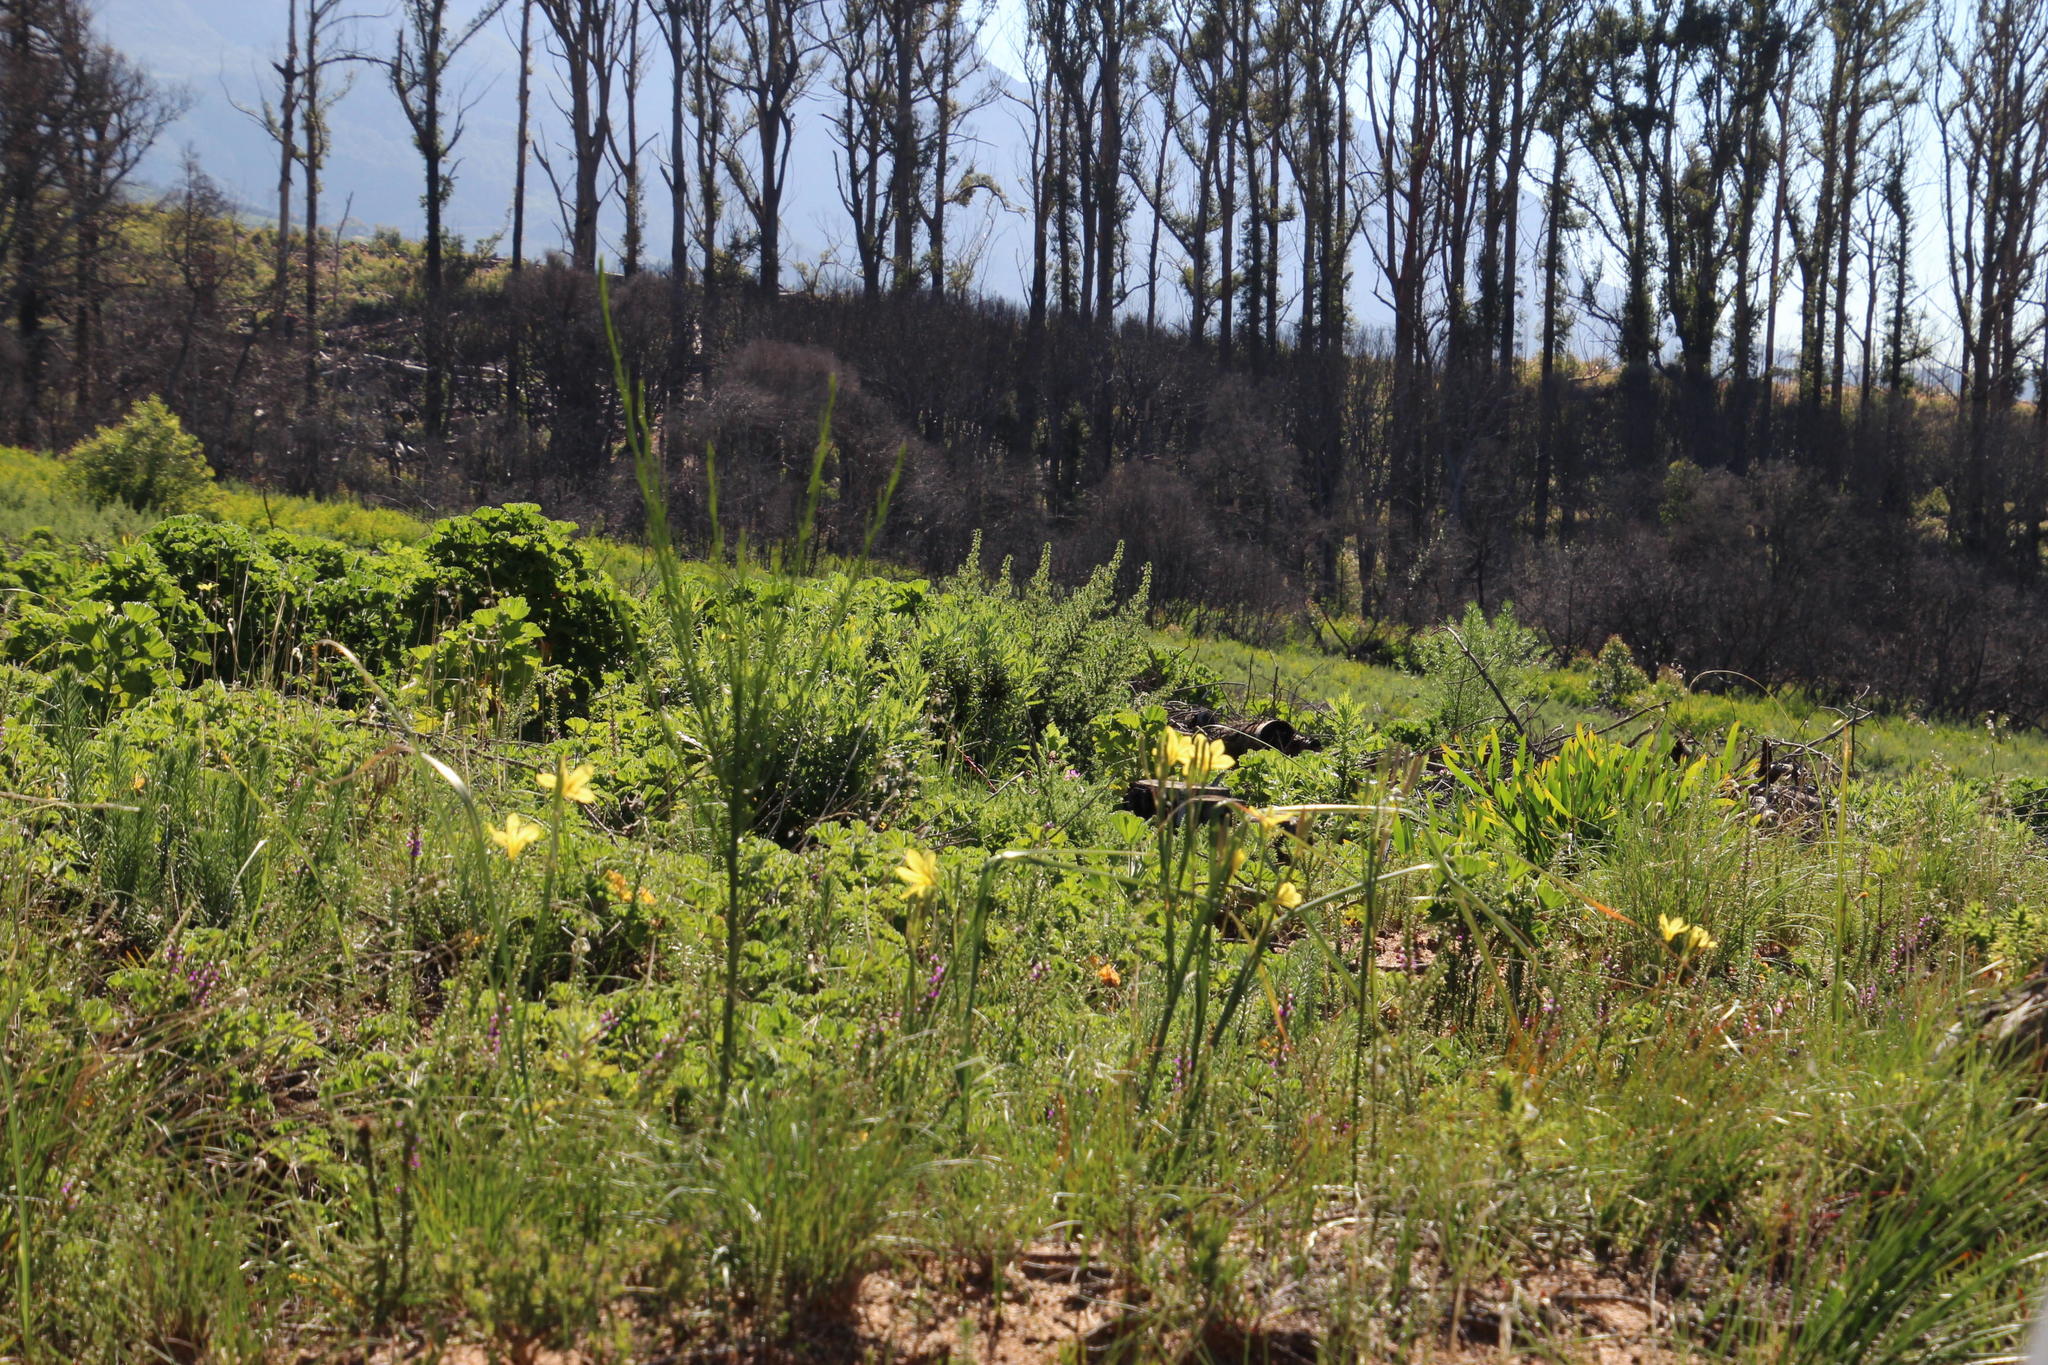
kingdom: Plantae
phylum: Tracheophyta
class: Liliopsida
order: Asparagales
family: Iridaceae
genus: Moraea
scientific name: Moraea ochroleuca
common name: Red tulp
